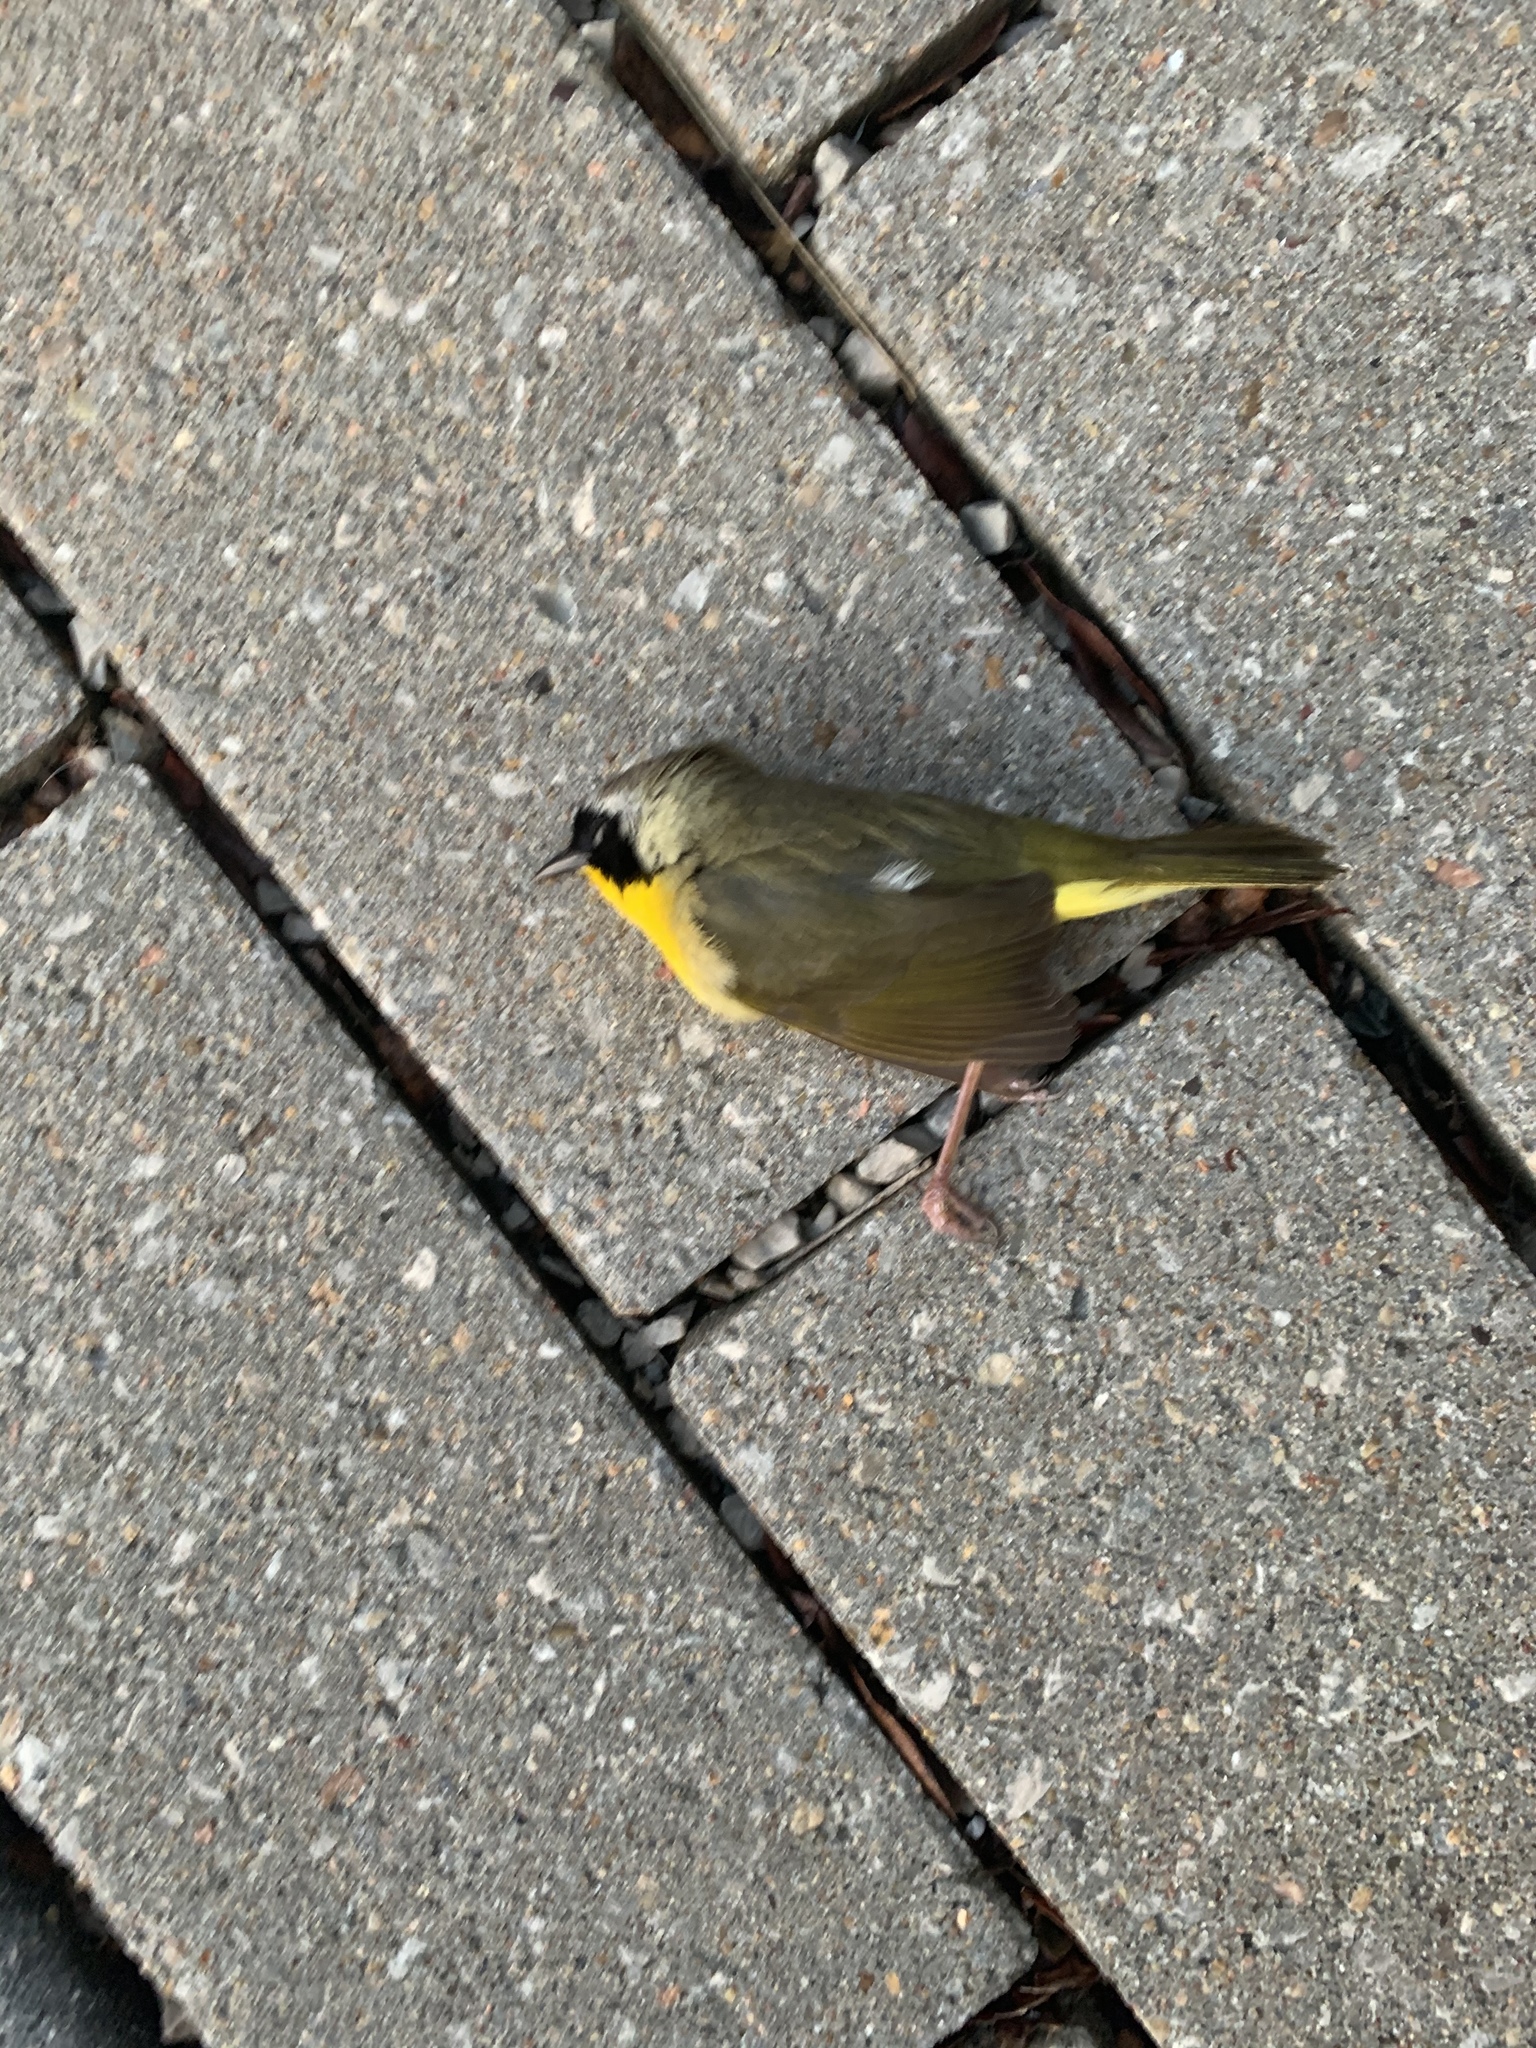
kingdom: Animalia
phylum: Chordata
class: Aves
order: Passeriformes
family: Parulidae
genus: Geothlypis
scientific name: Geothlypis trichas
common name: Common yellowthroat
